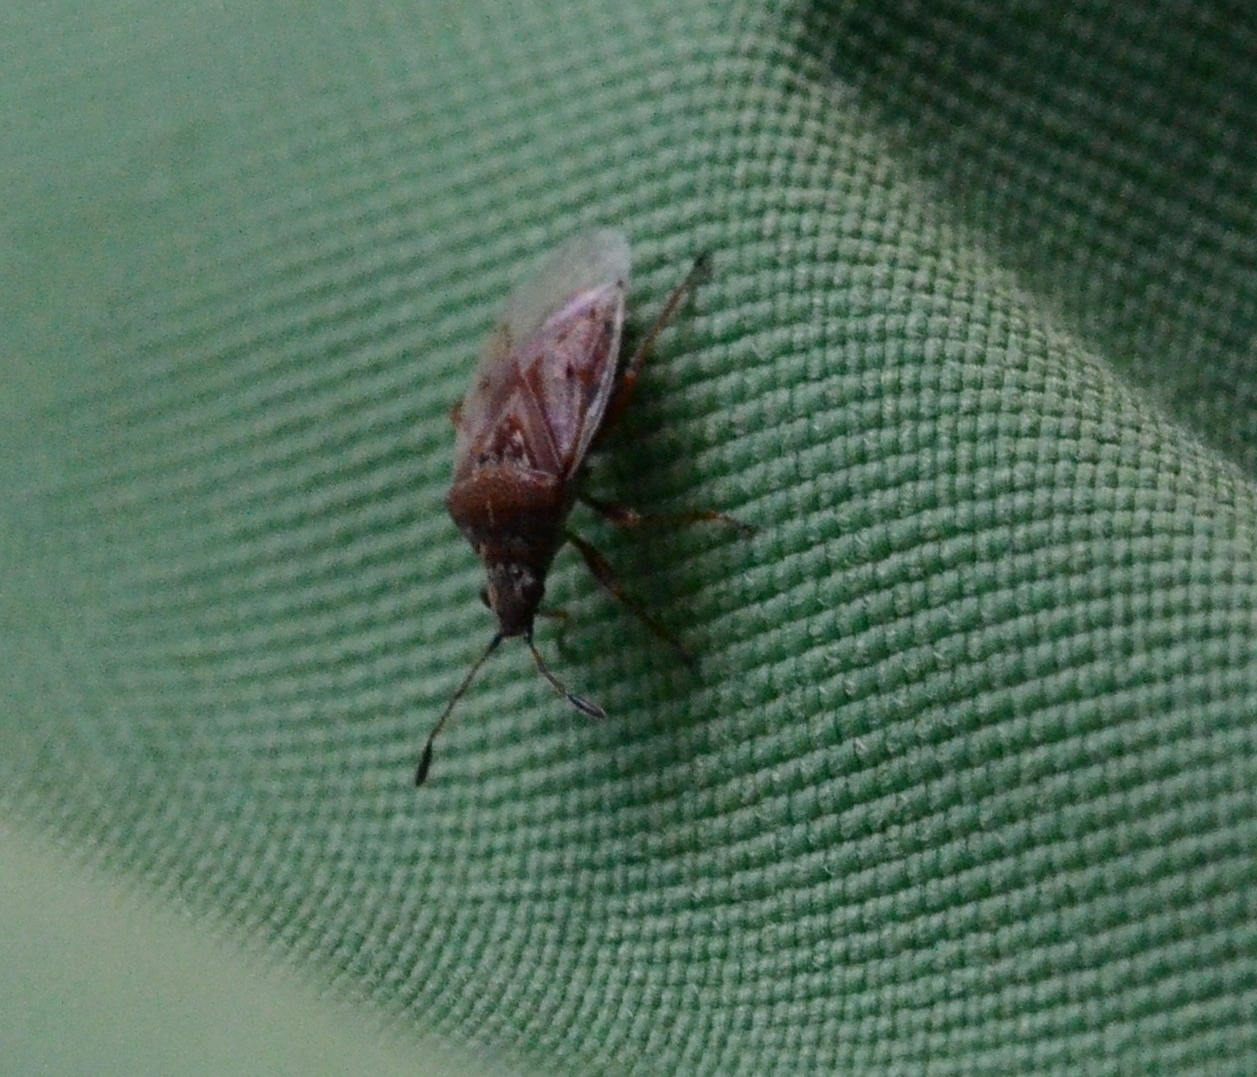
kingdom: Animalia
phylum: Arthropoda
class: Insecta
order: Hemiptera
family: Lygaeidae
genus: Kleidocerys
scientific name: Kleidocerys resedae
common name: Birch catkin bug
